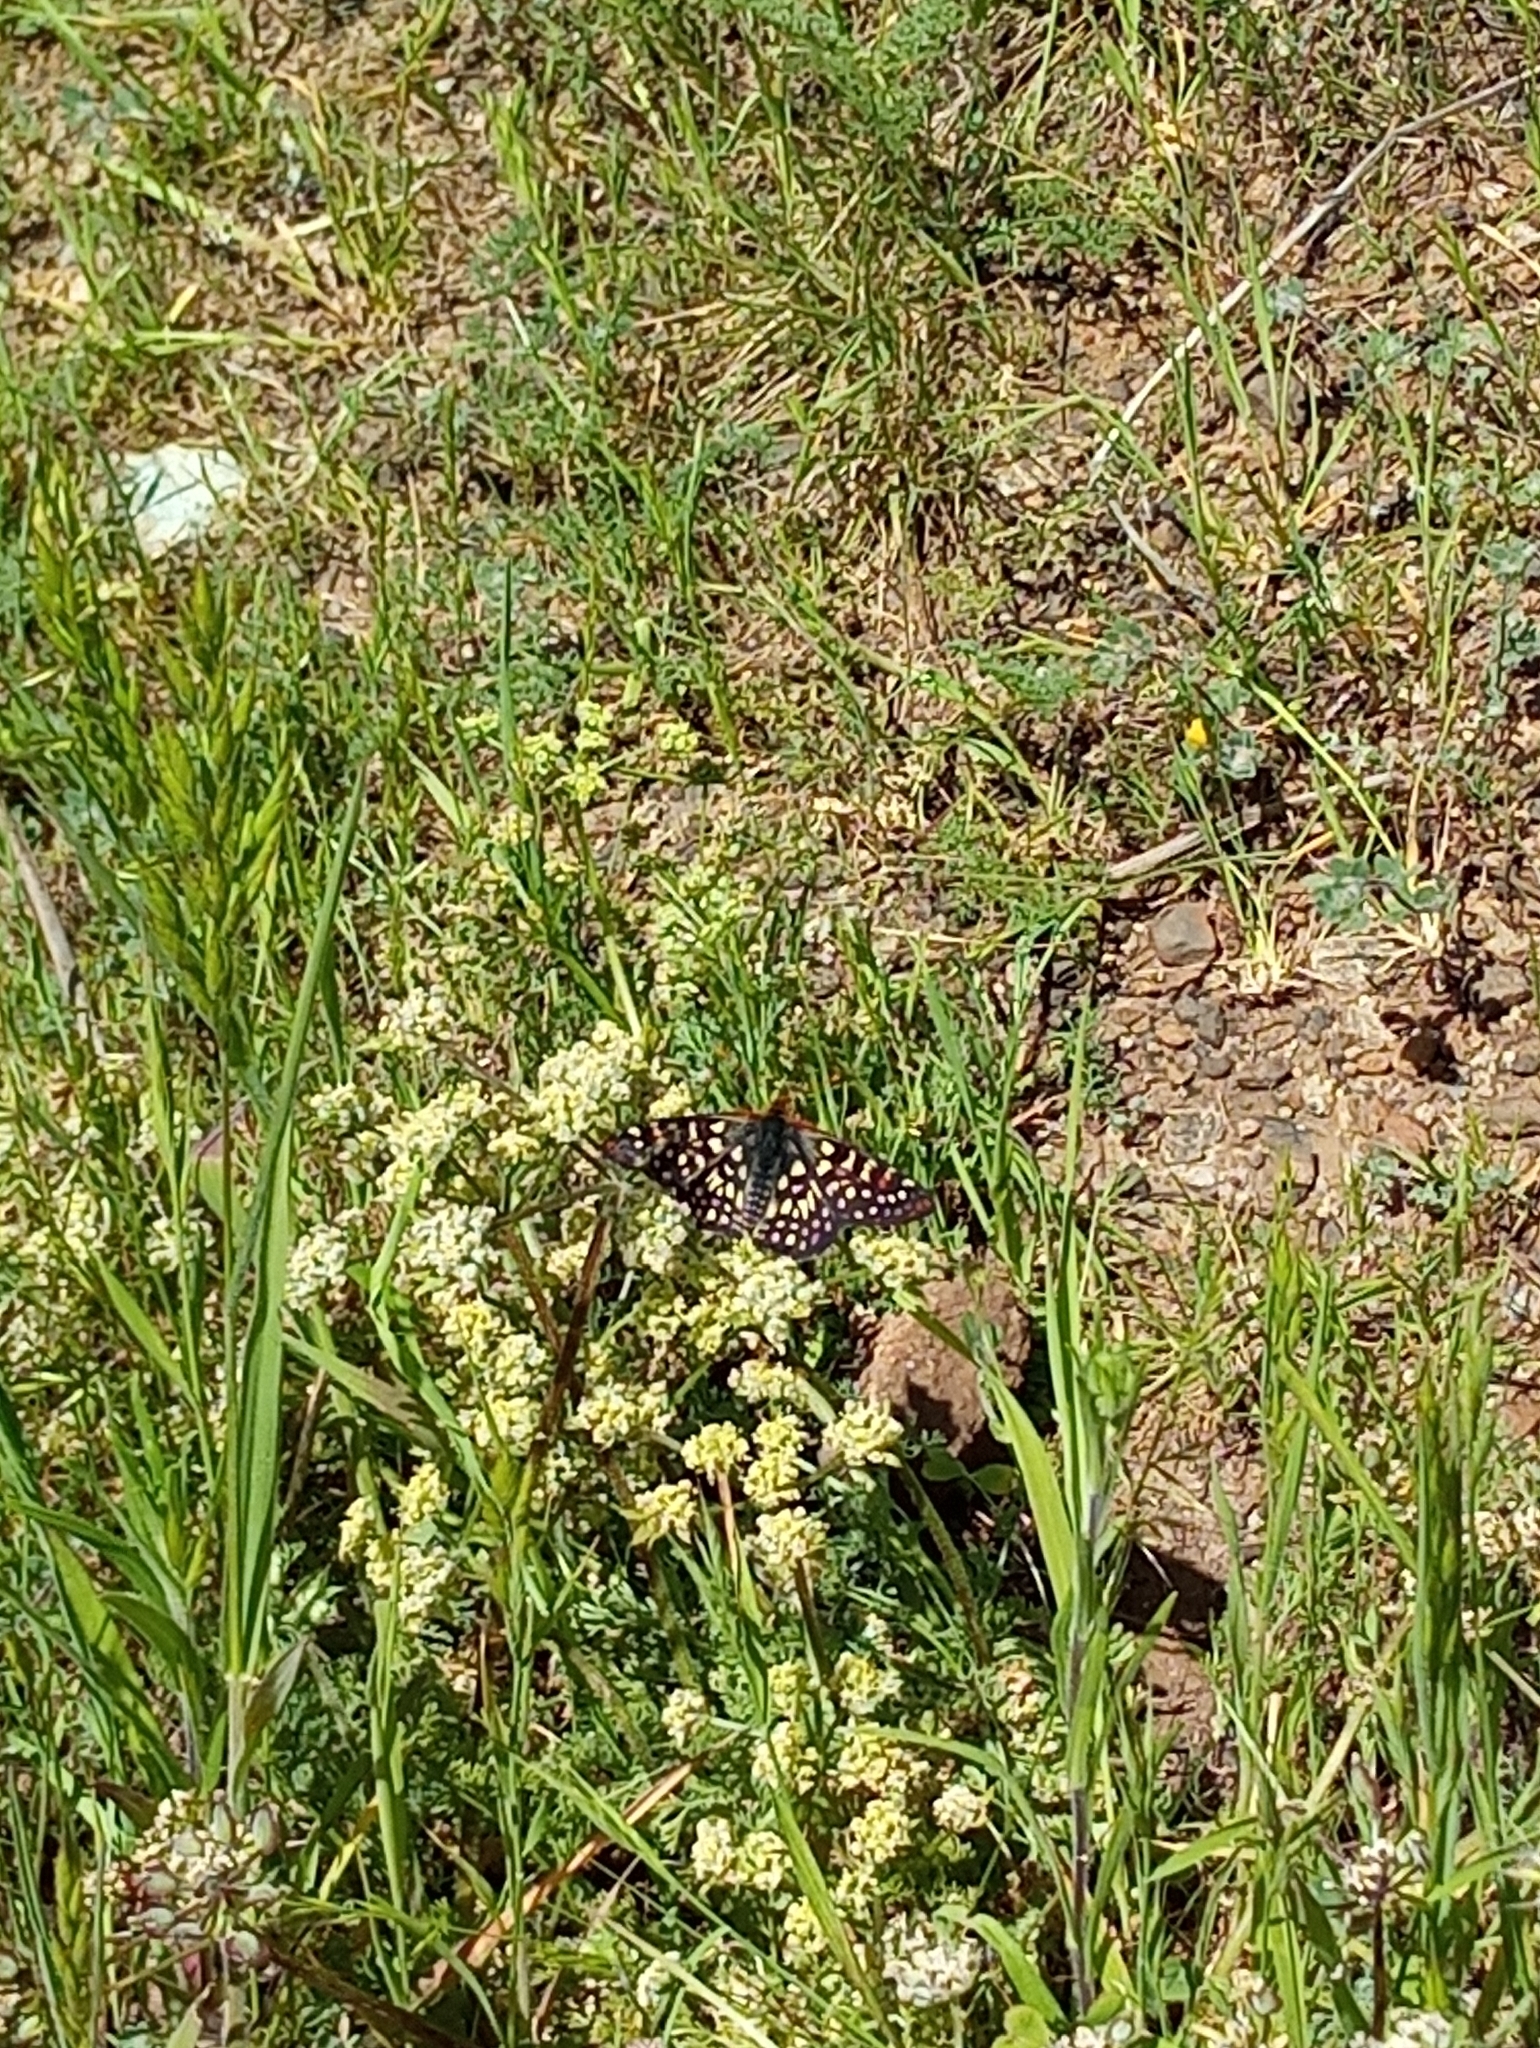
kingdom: Animalia
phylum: Arthropoda
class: Insecta
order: Lepidoptera
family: Nymphalidae
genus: Occidryas
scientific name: Occidryas chalcedona
